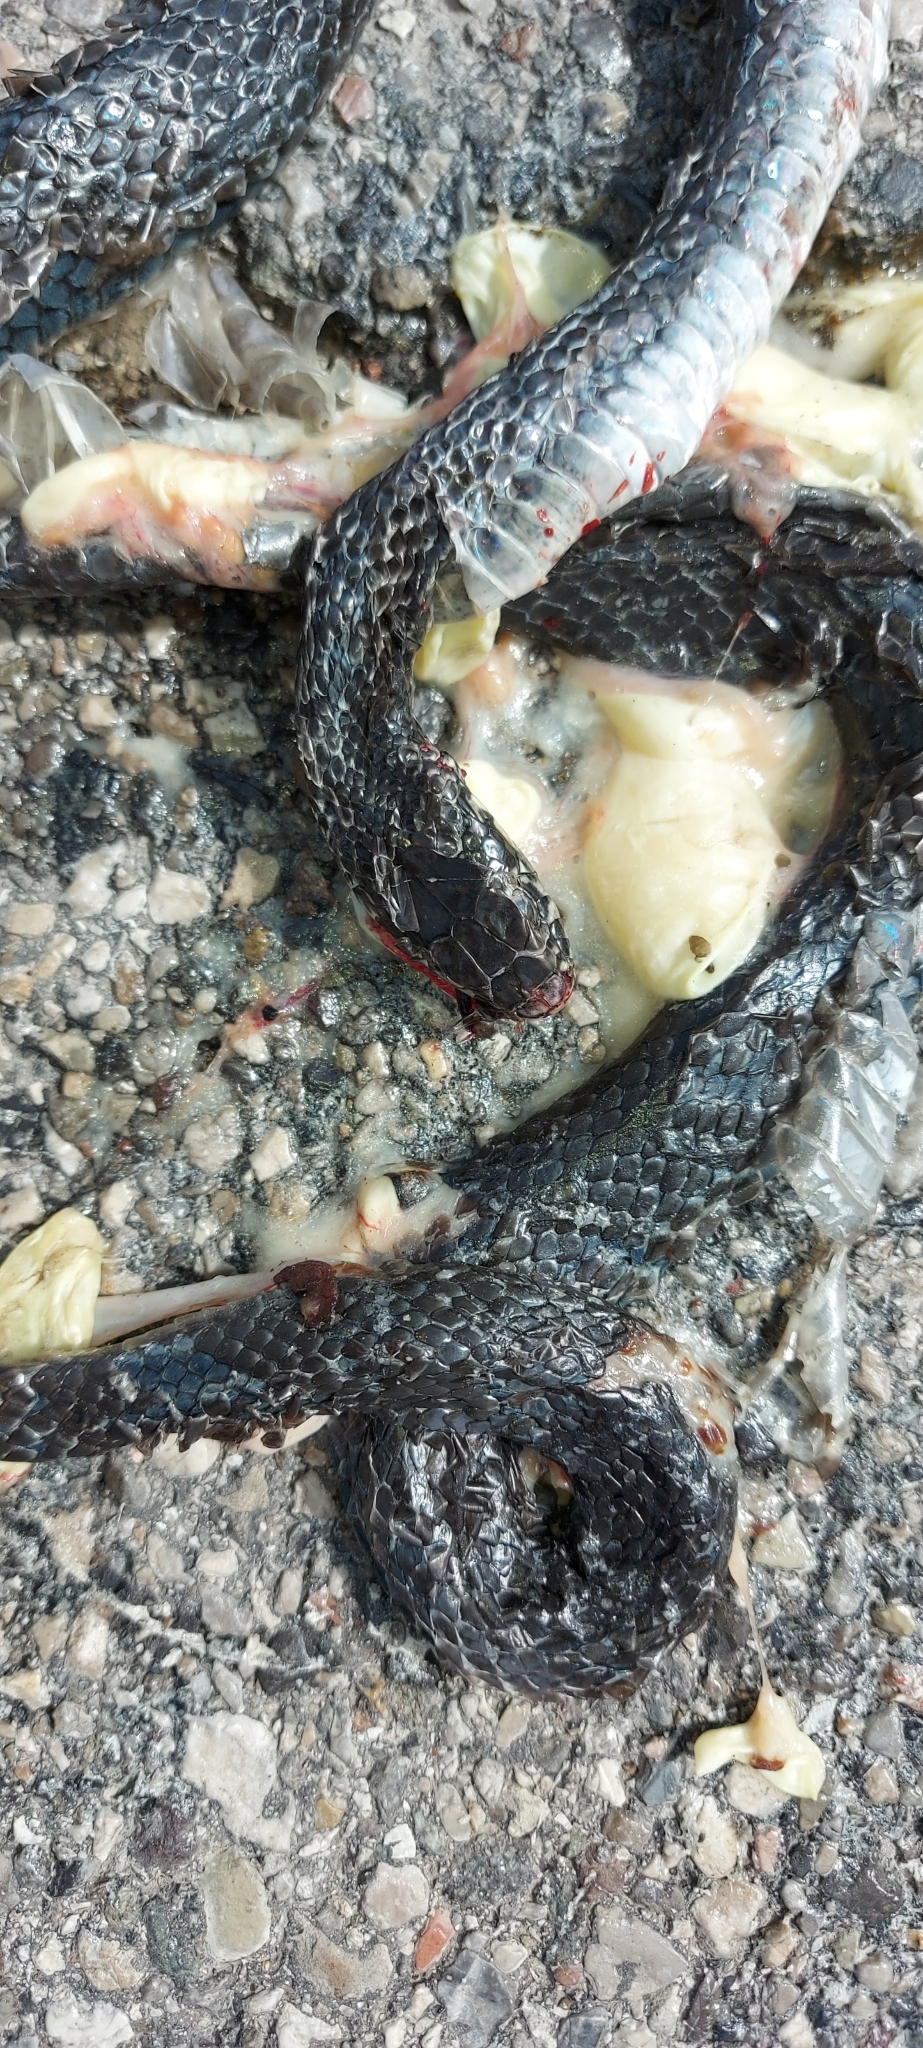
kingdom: Animalia
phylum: Chordata
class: Squamata
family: Colubridae
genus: Hierophis
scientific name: Hierophis viridiflavus
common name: Green whip snake
